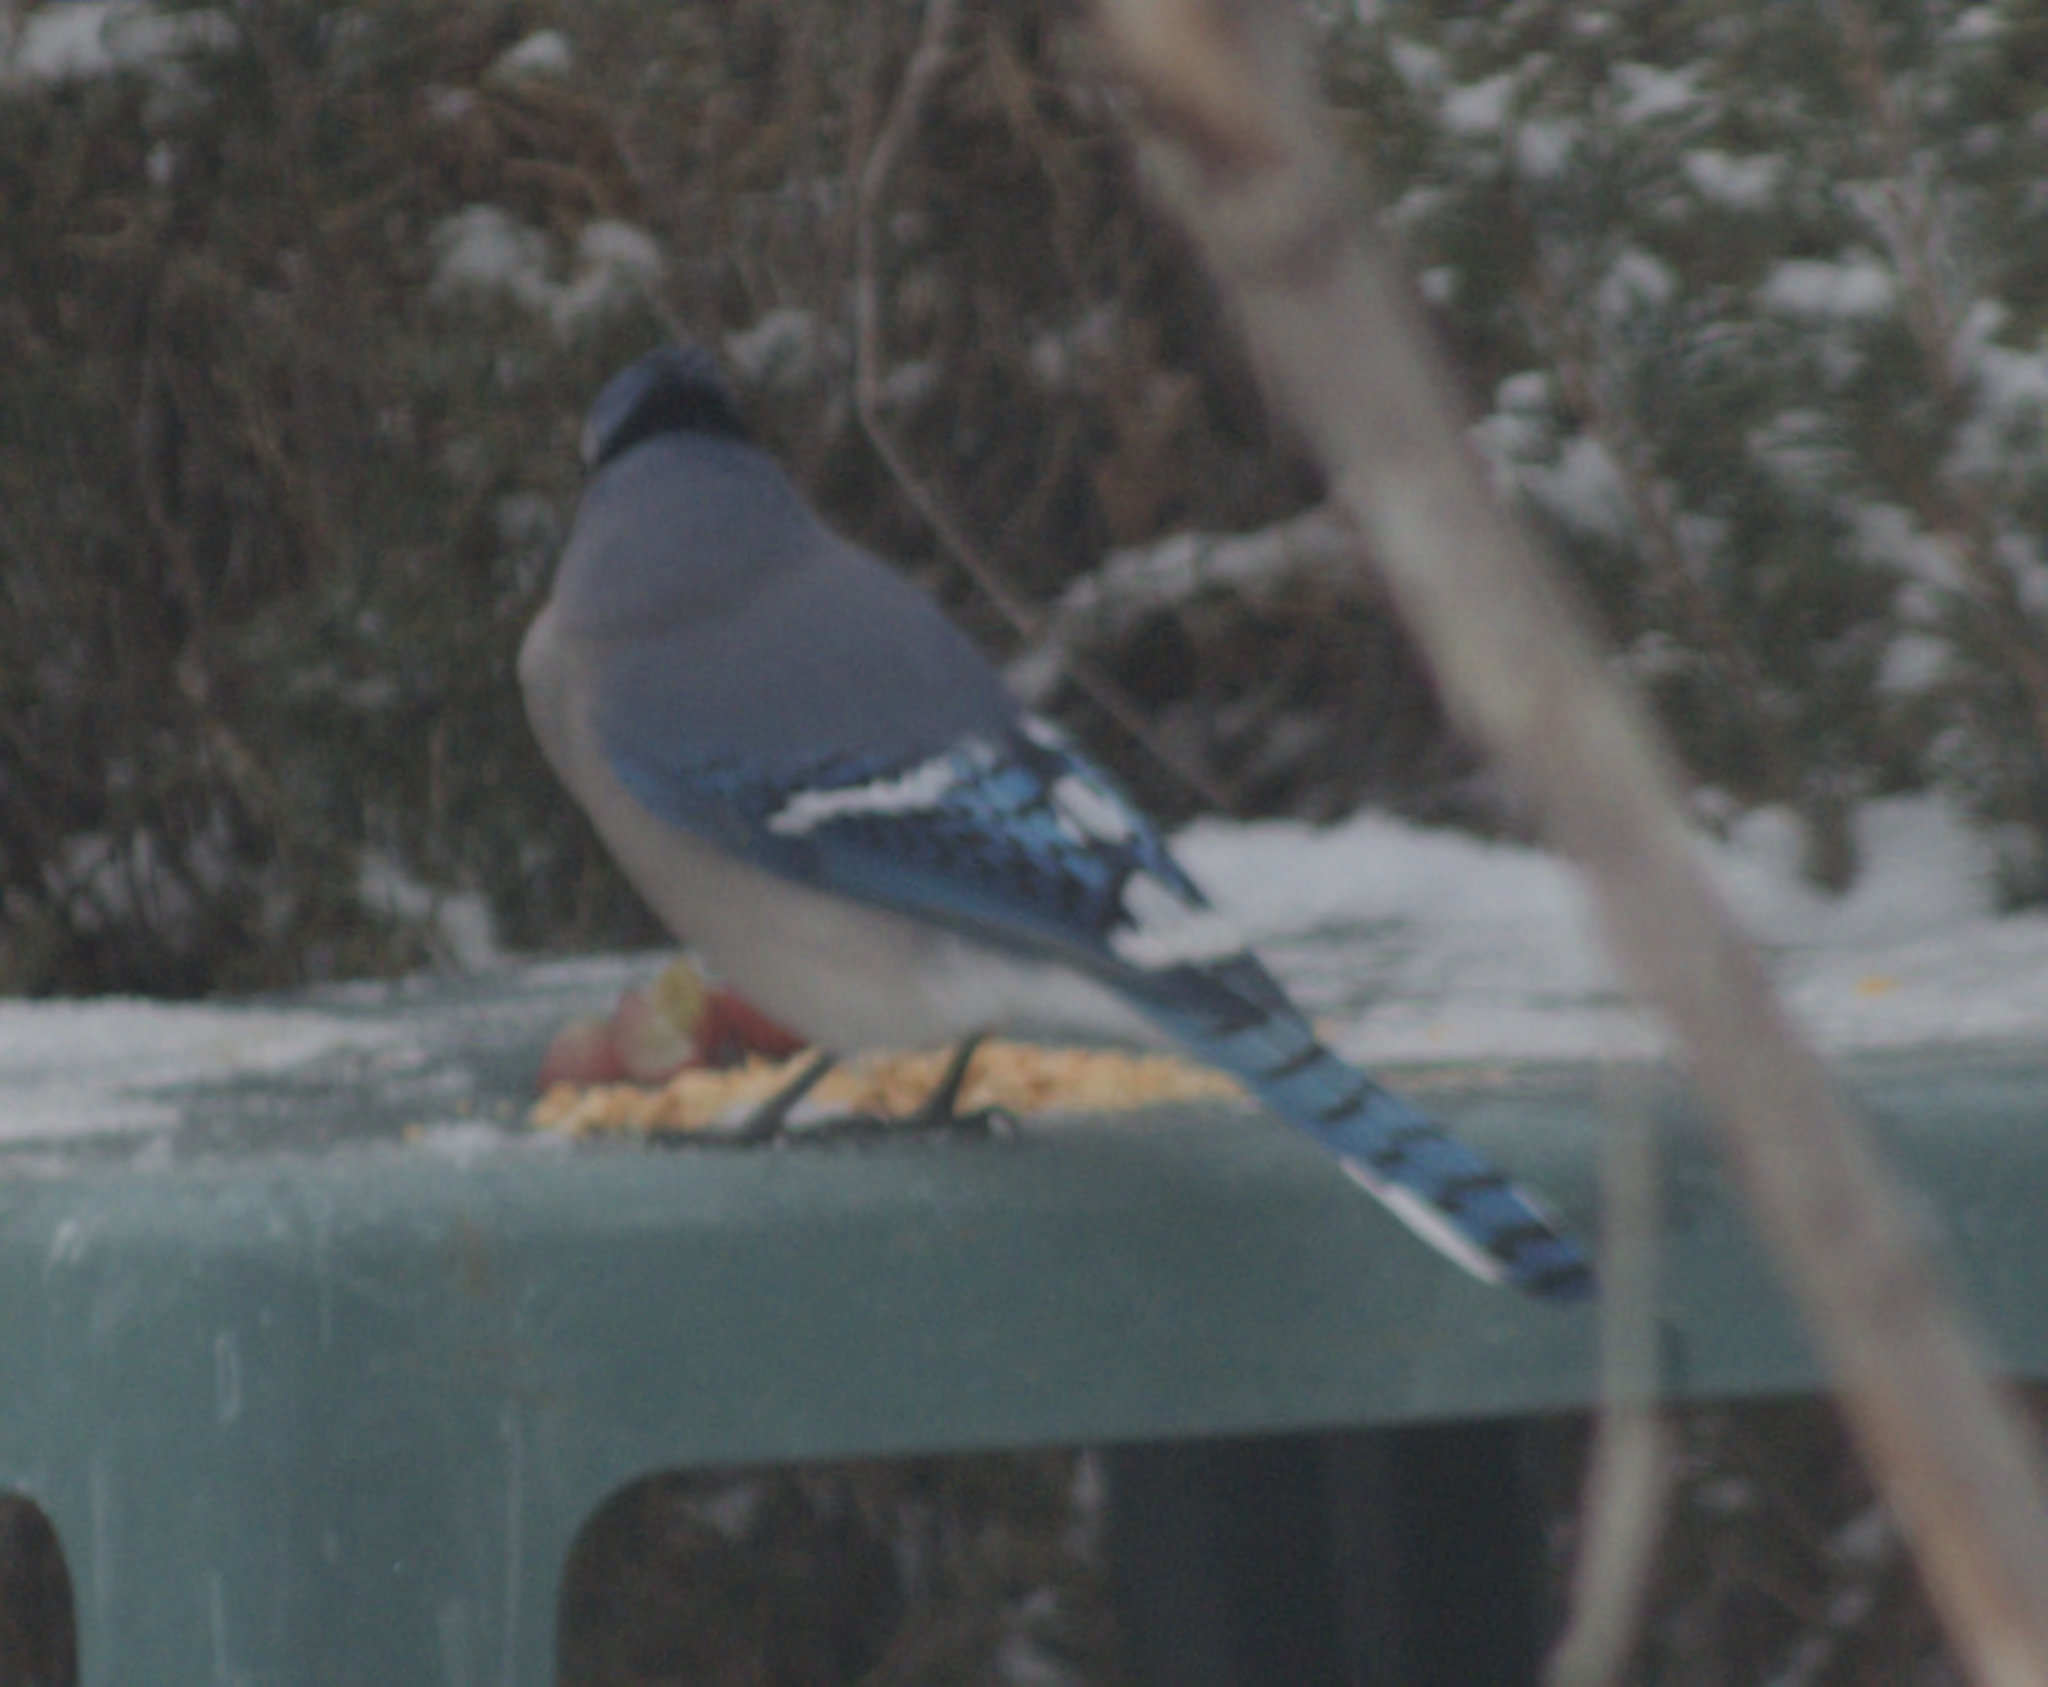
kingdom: Animalia
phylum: Chordata
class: Aves
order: Passeriformes
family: Corvidae
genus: Cyanocitta
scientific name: Cyanocitta cristata
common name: Blue jay
